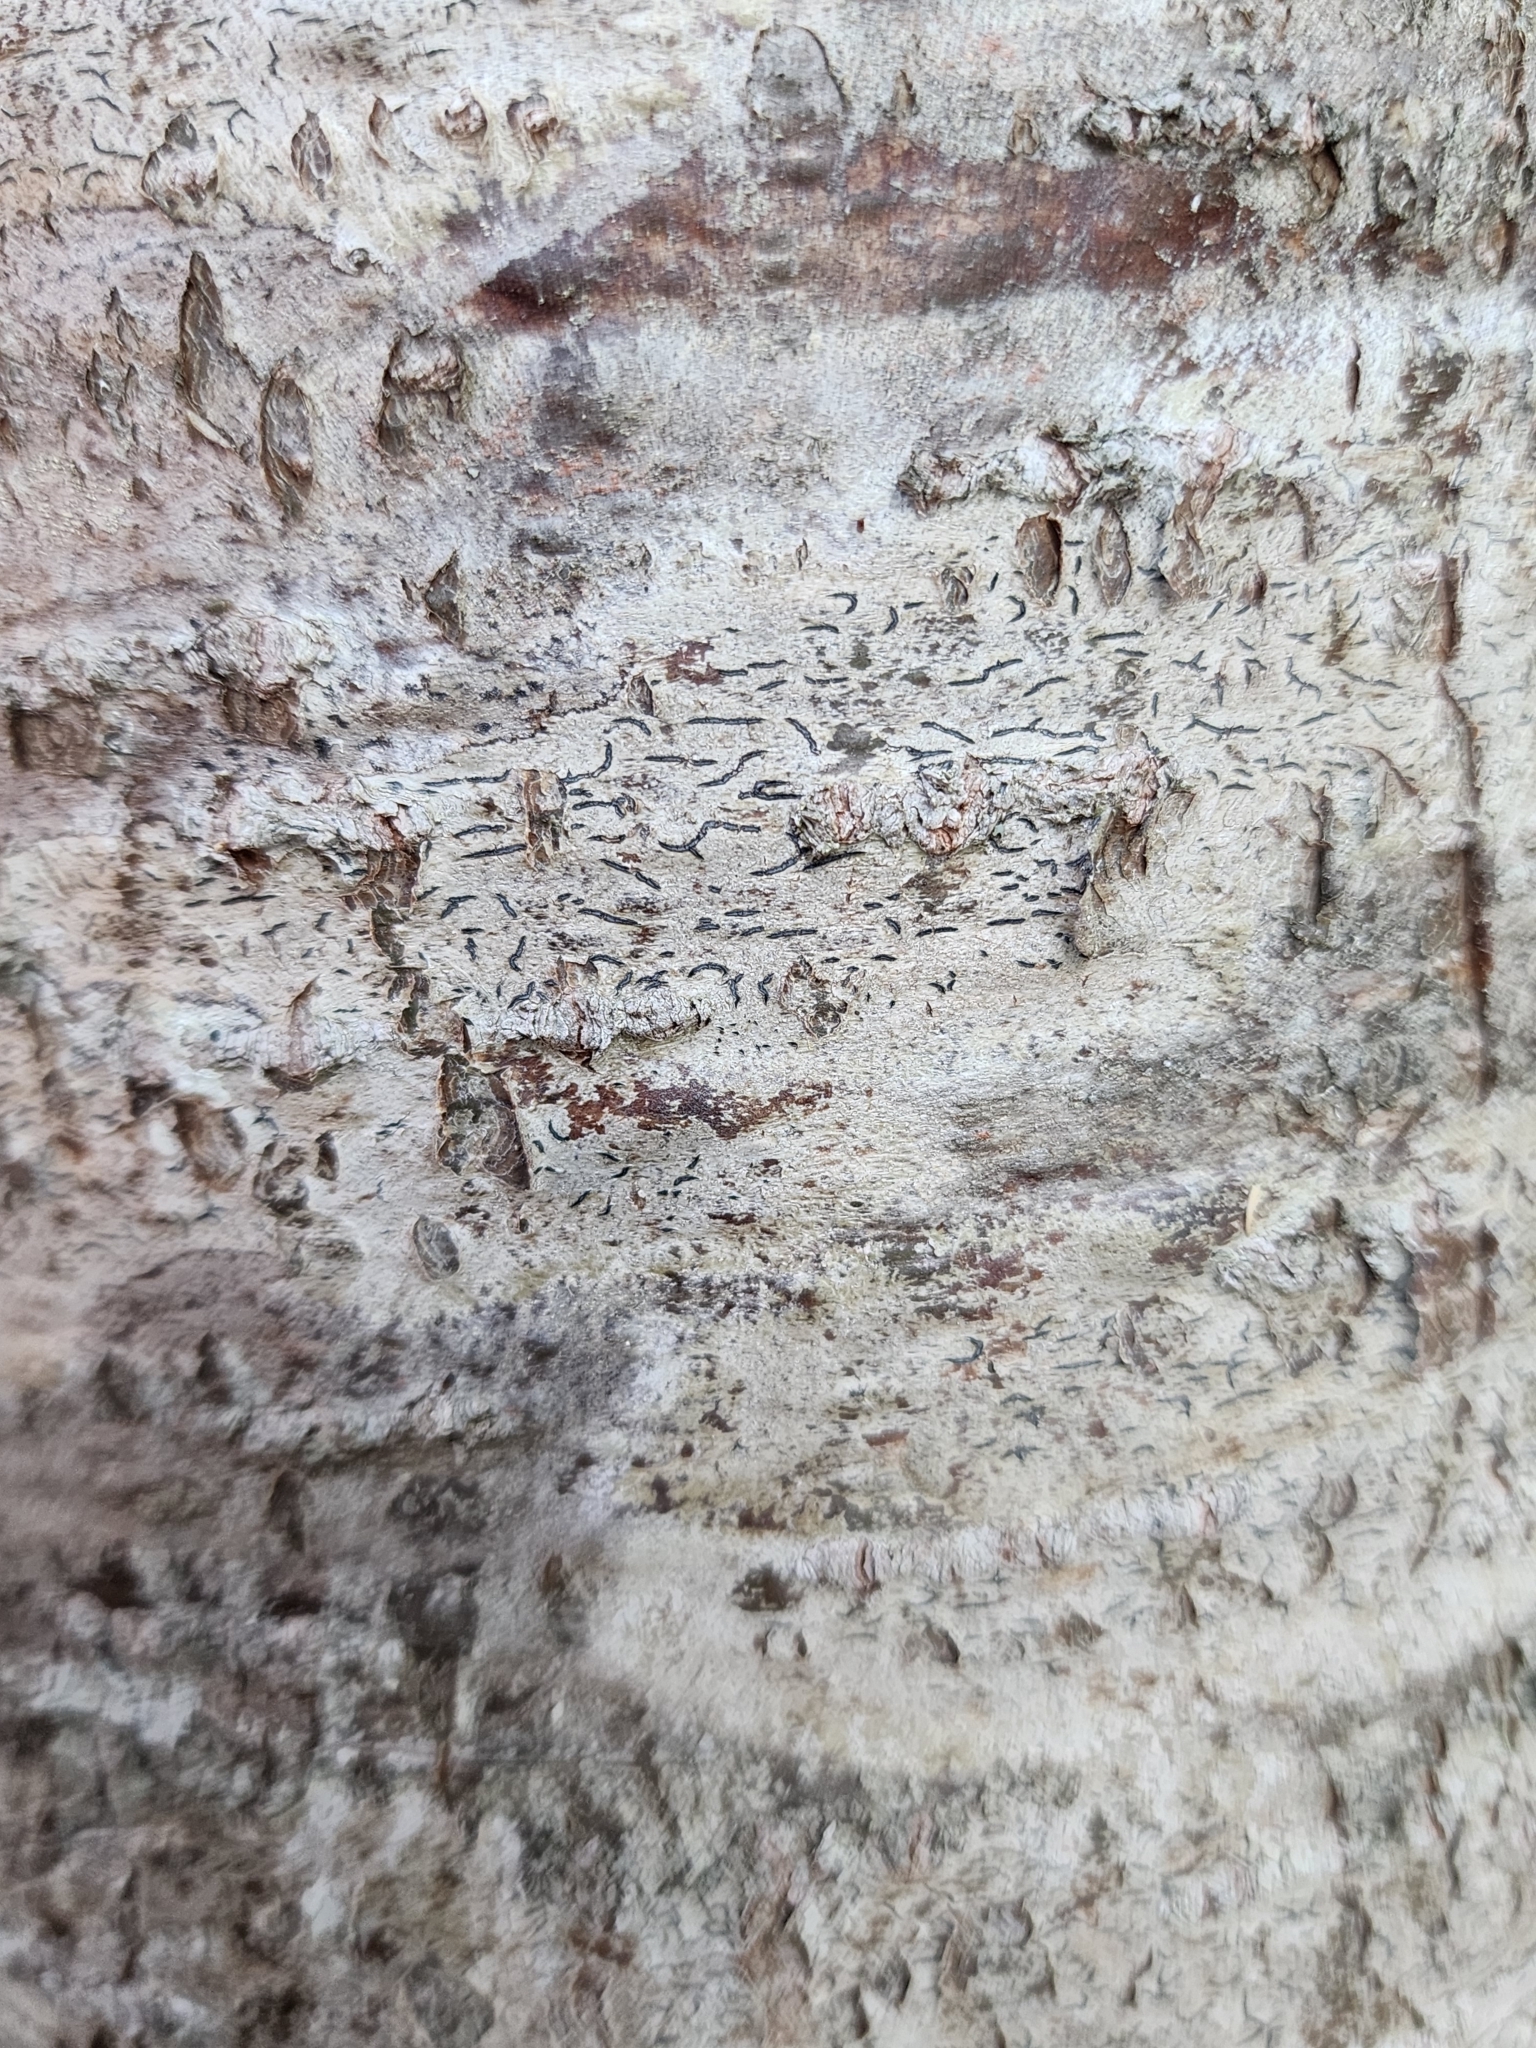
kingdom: Fungi
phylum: Ascomycota
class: Lecanoromycetes
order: Ostropales
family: Graphidaceae
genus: Graphis
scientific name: Graphis scripta
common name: Script lichen
